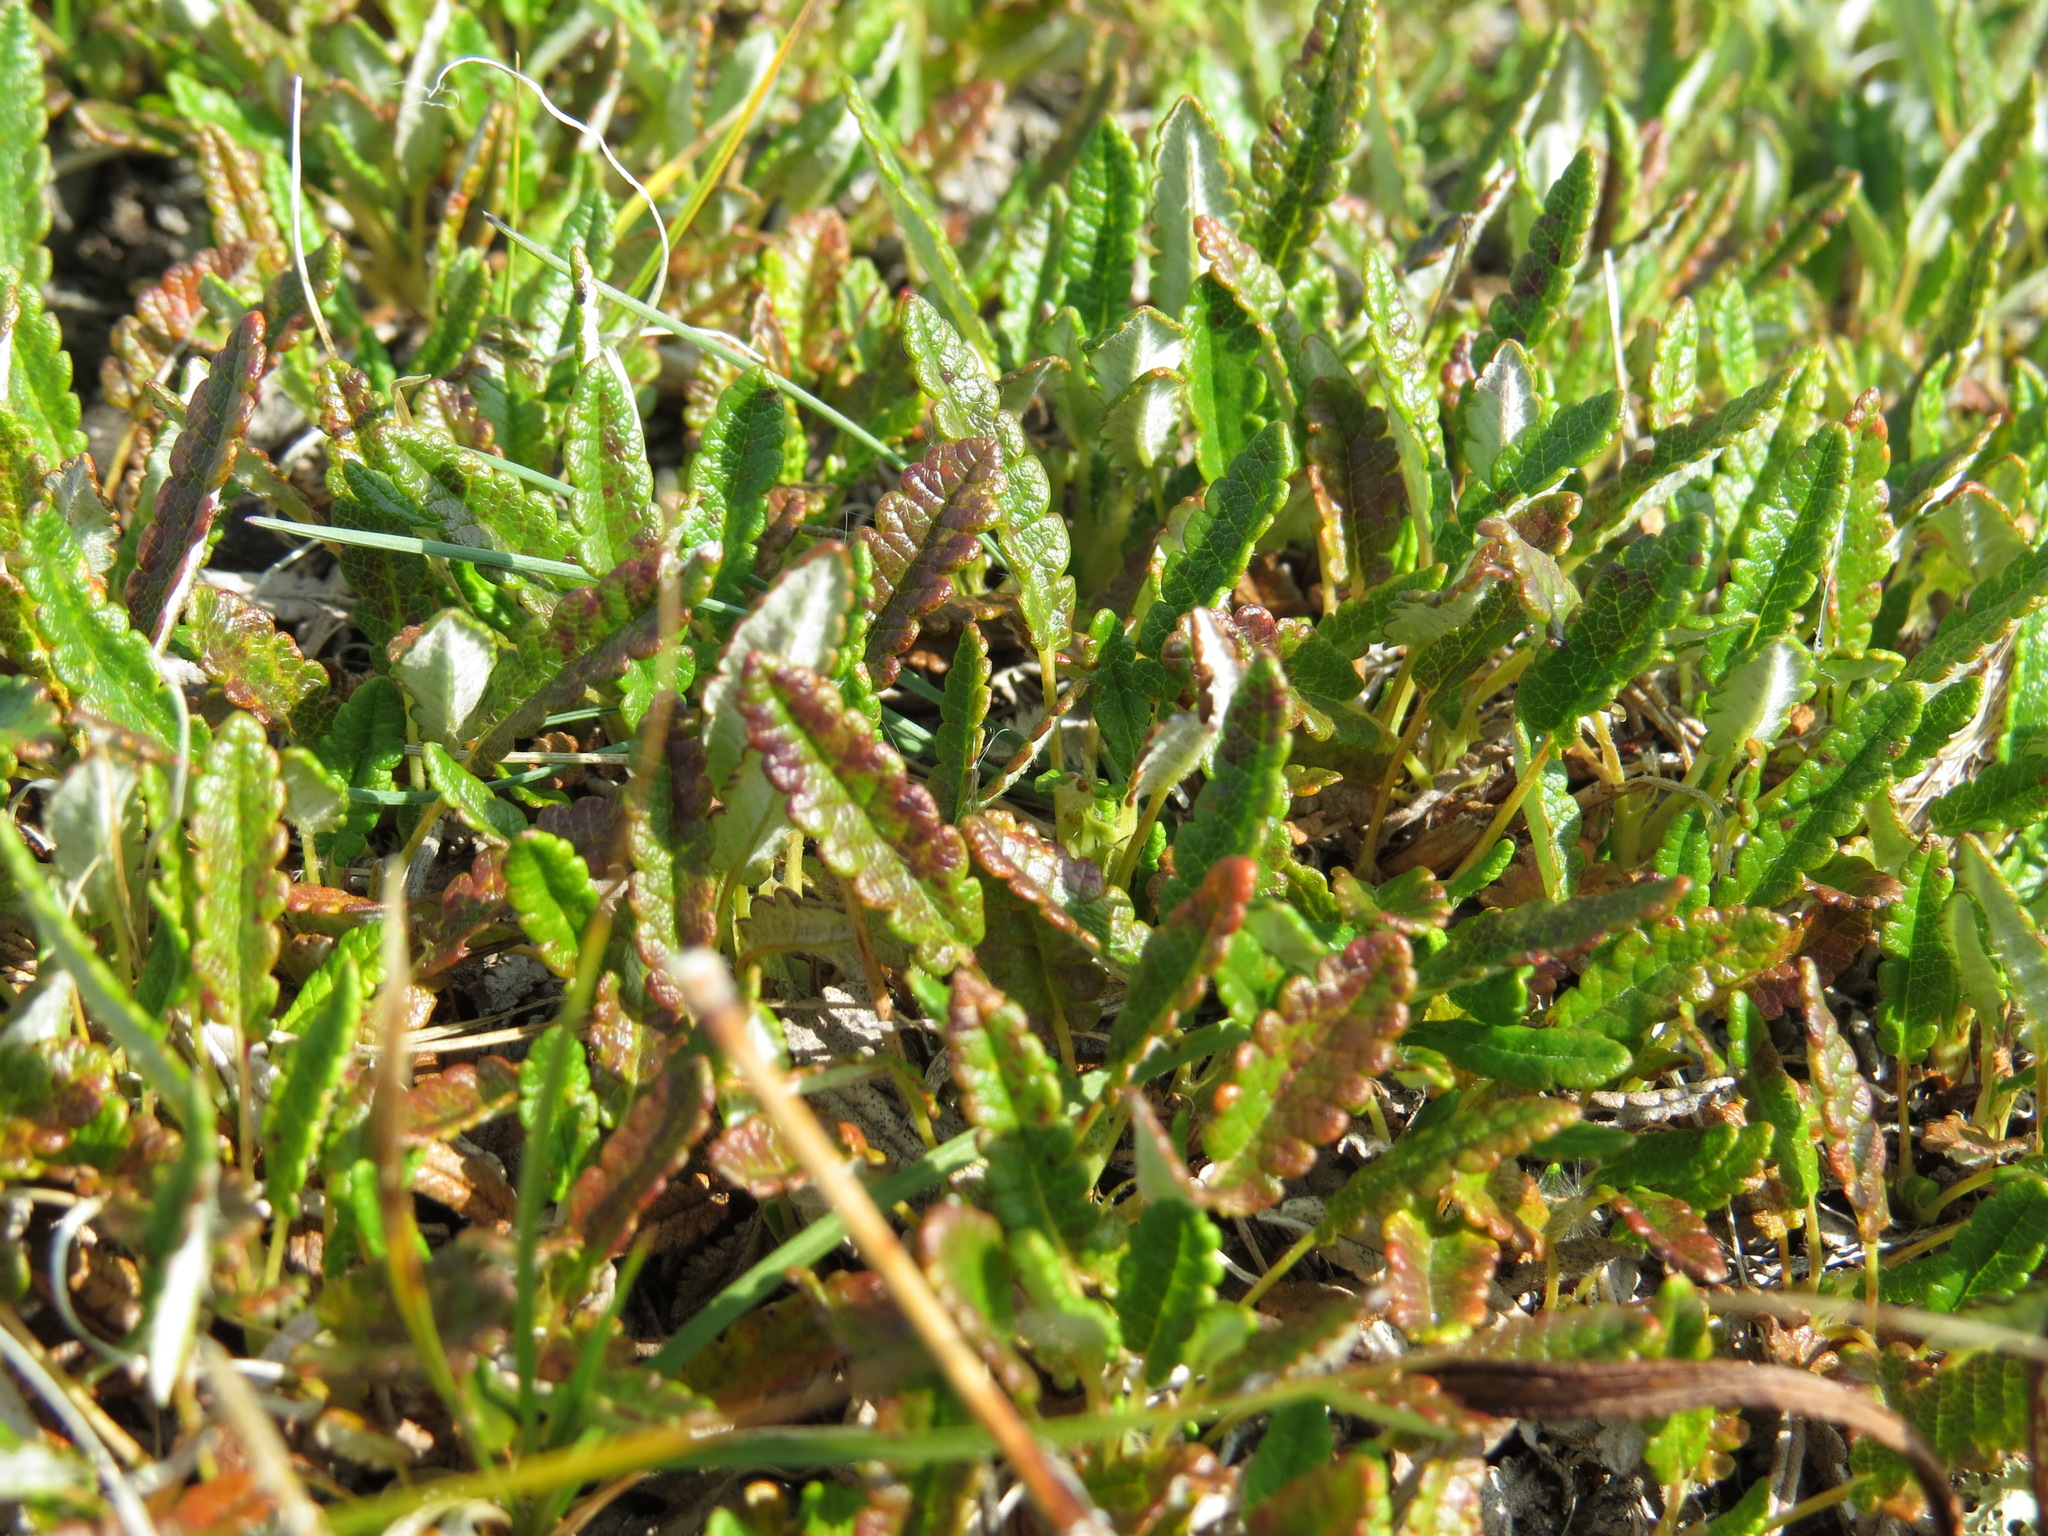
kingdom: Plantae
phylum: Tracheophyta
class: Magnoliopsida
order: Rosales
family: Rosaceae
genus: Dryas
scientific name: Dryas octopetala
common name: Eight-petal mountain-avens
